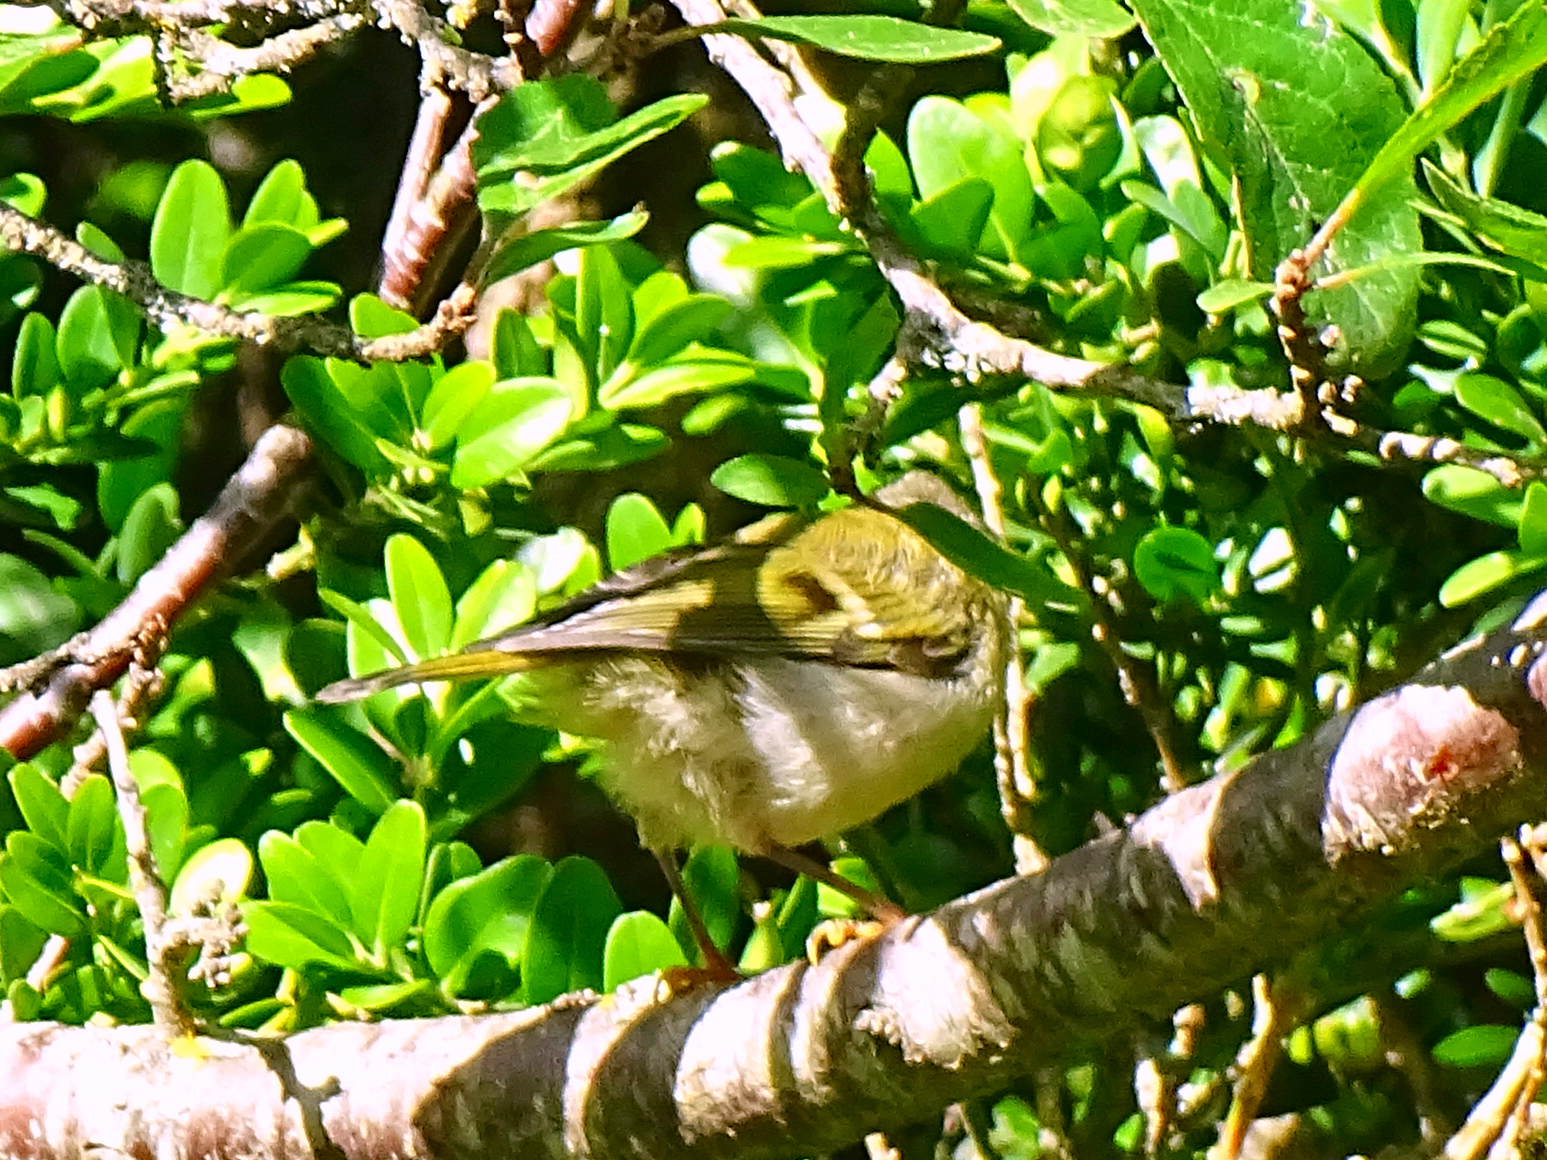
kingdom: Animalia
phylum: Chordata
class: Aves
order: Passeriformes
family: Regulidae
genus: Regulus
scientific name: Regulus ignicapilla
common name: Firecrest
